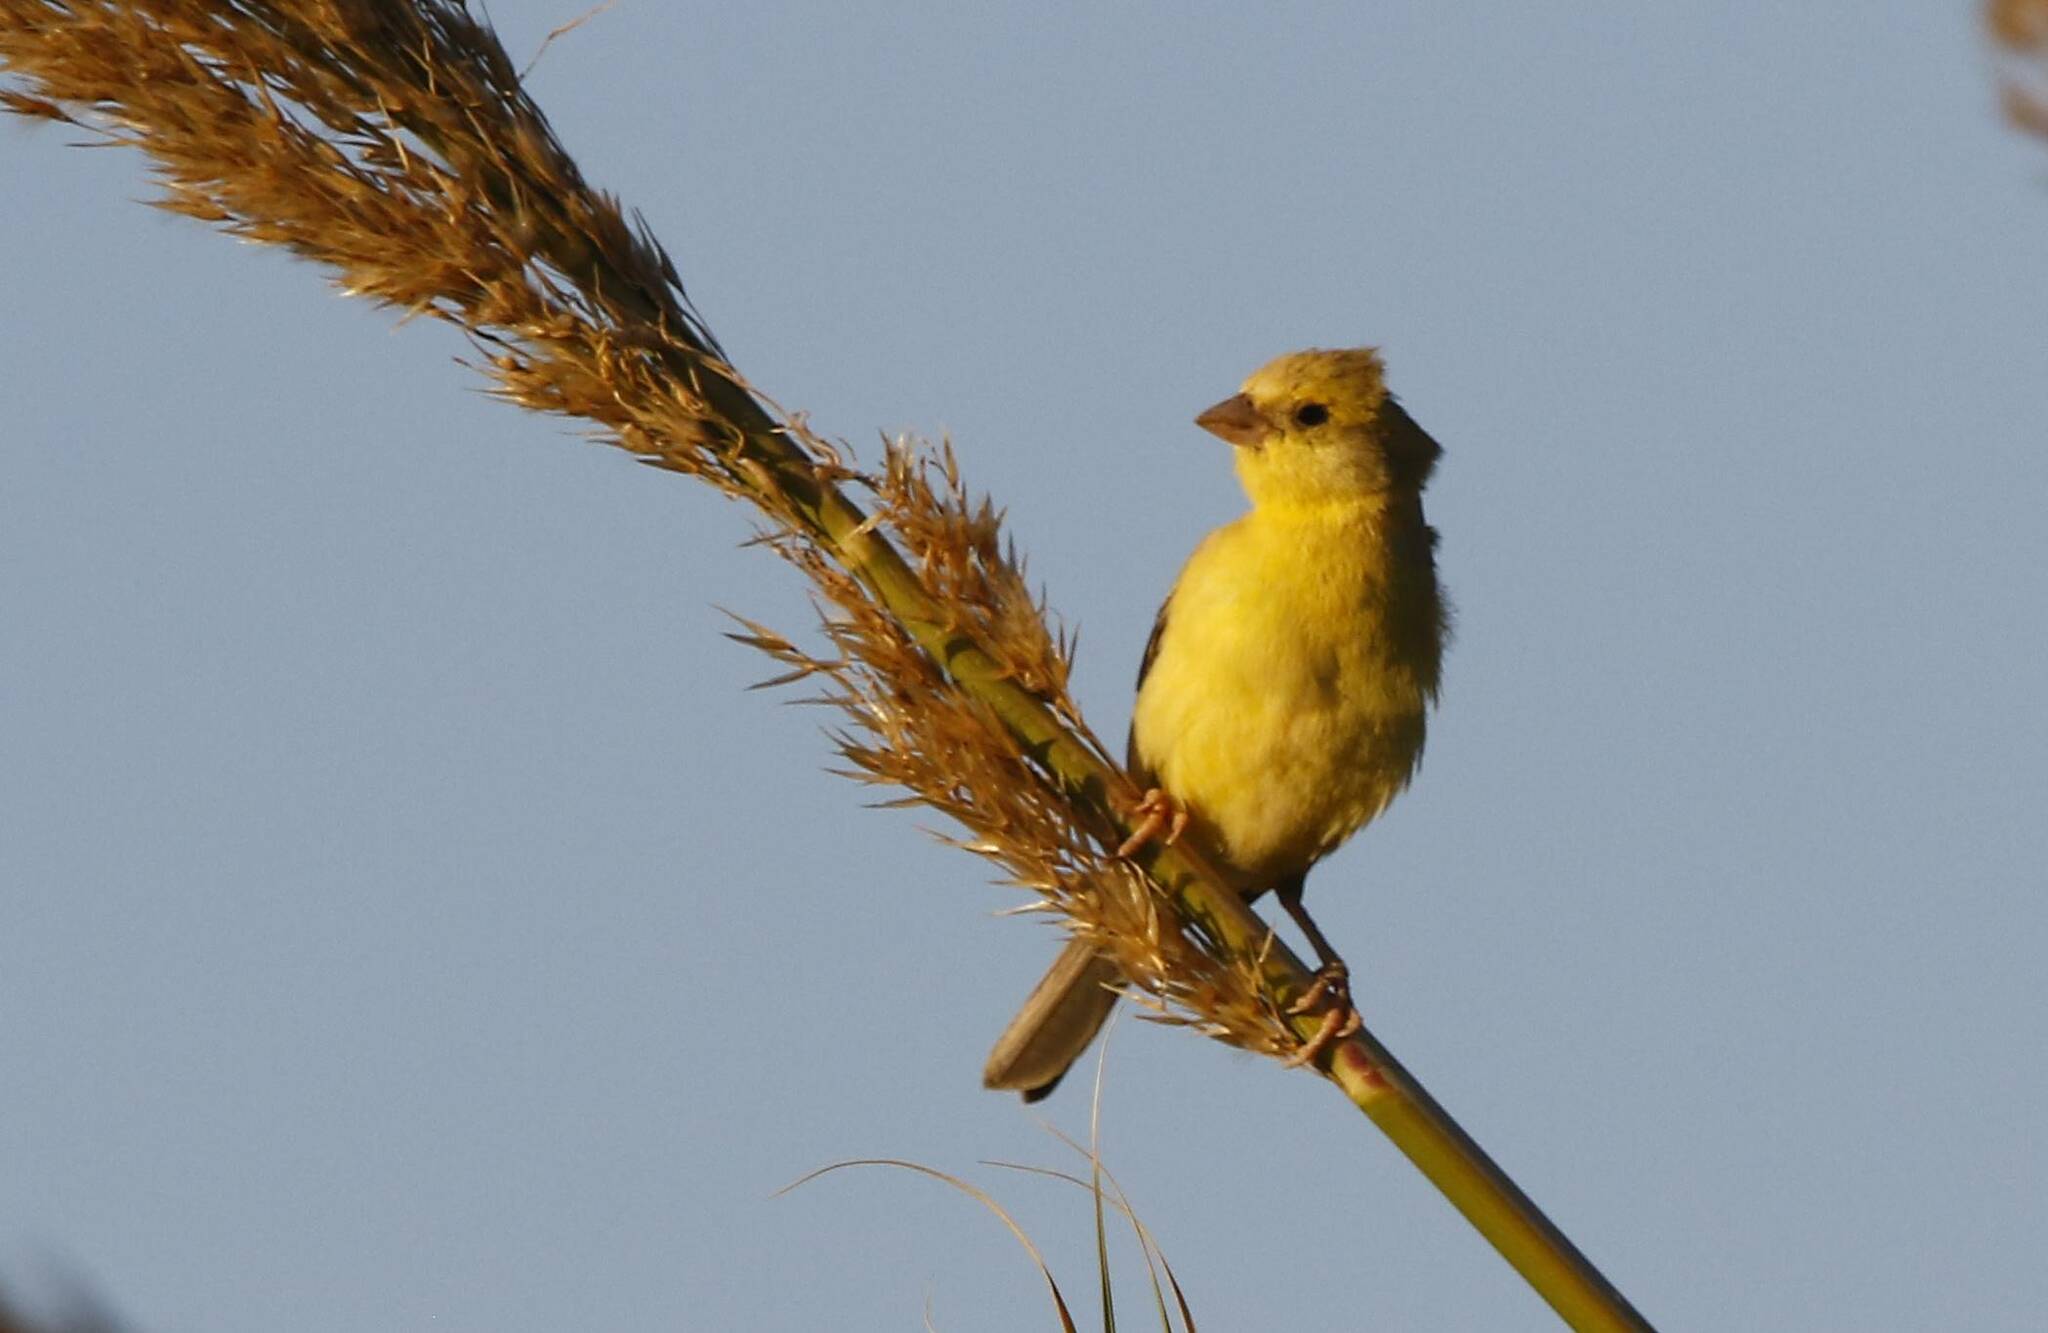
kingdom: Animalia
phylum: Chordata
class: Aves
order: Passeriformes
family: Passeridae
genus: Passer
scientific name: Passer luteus
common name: Sudan golden sparrow
